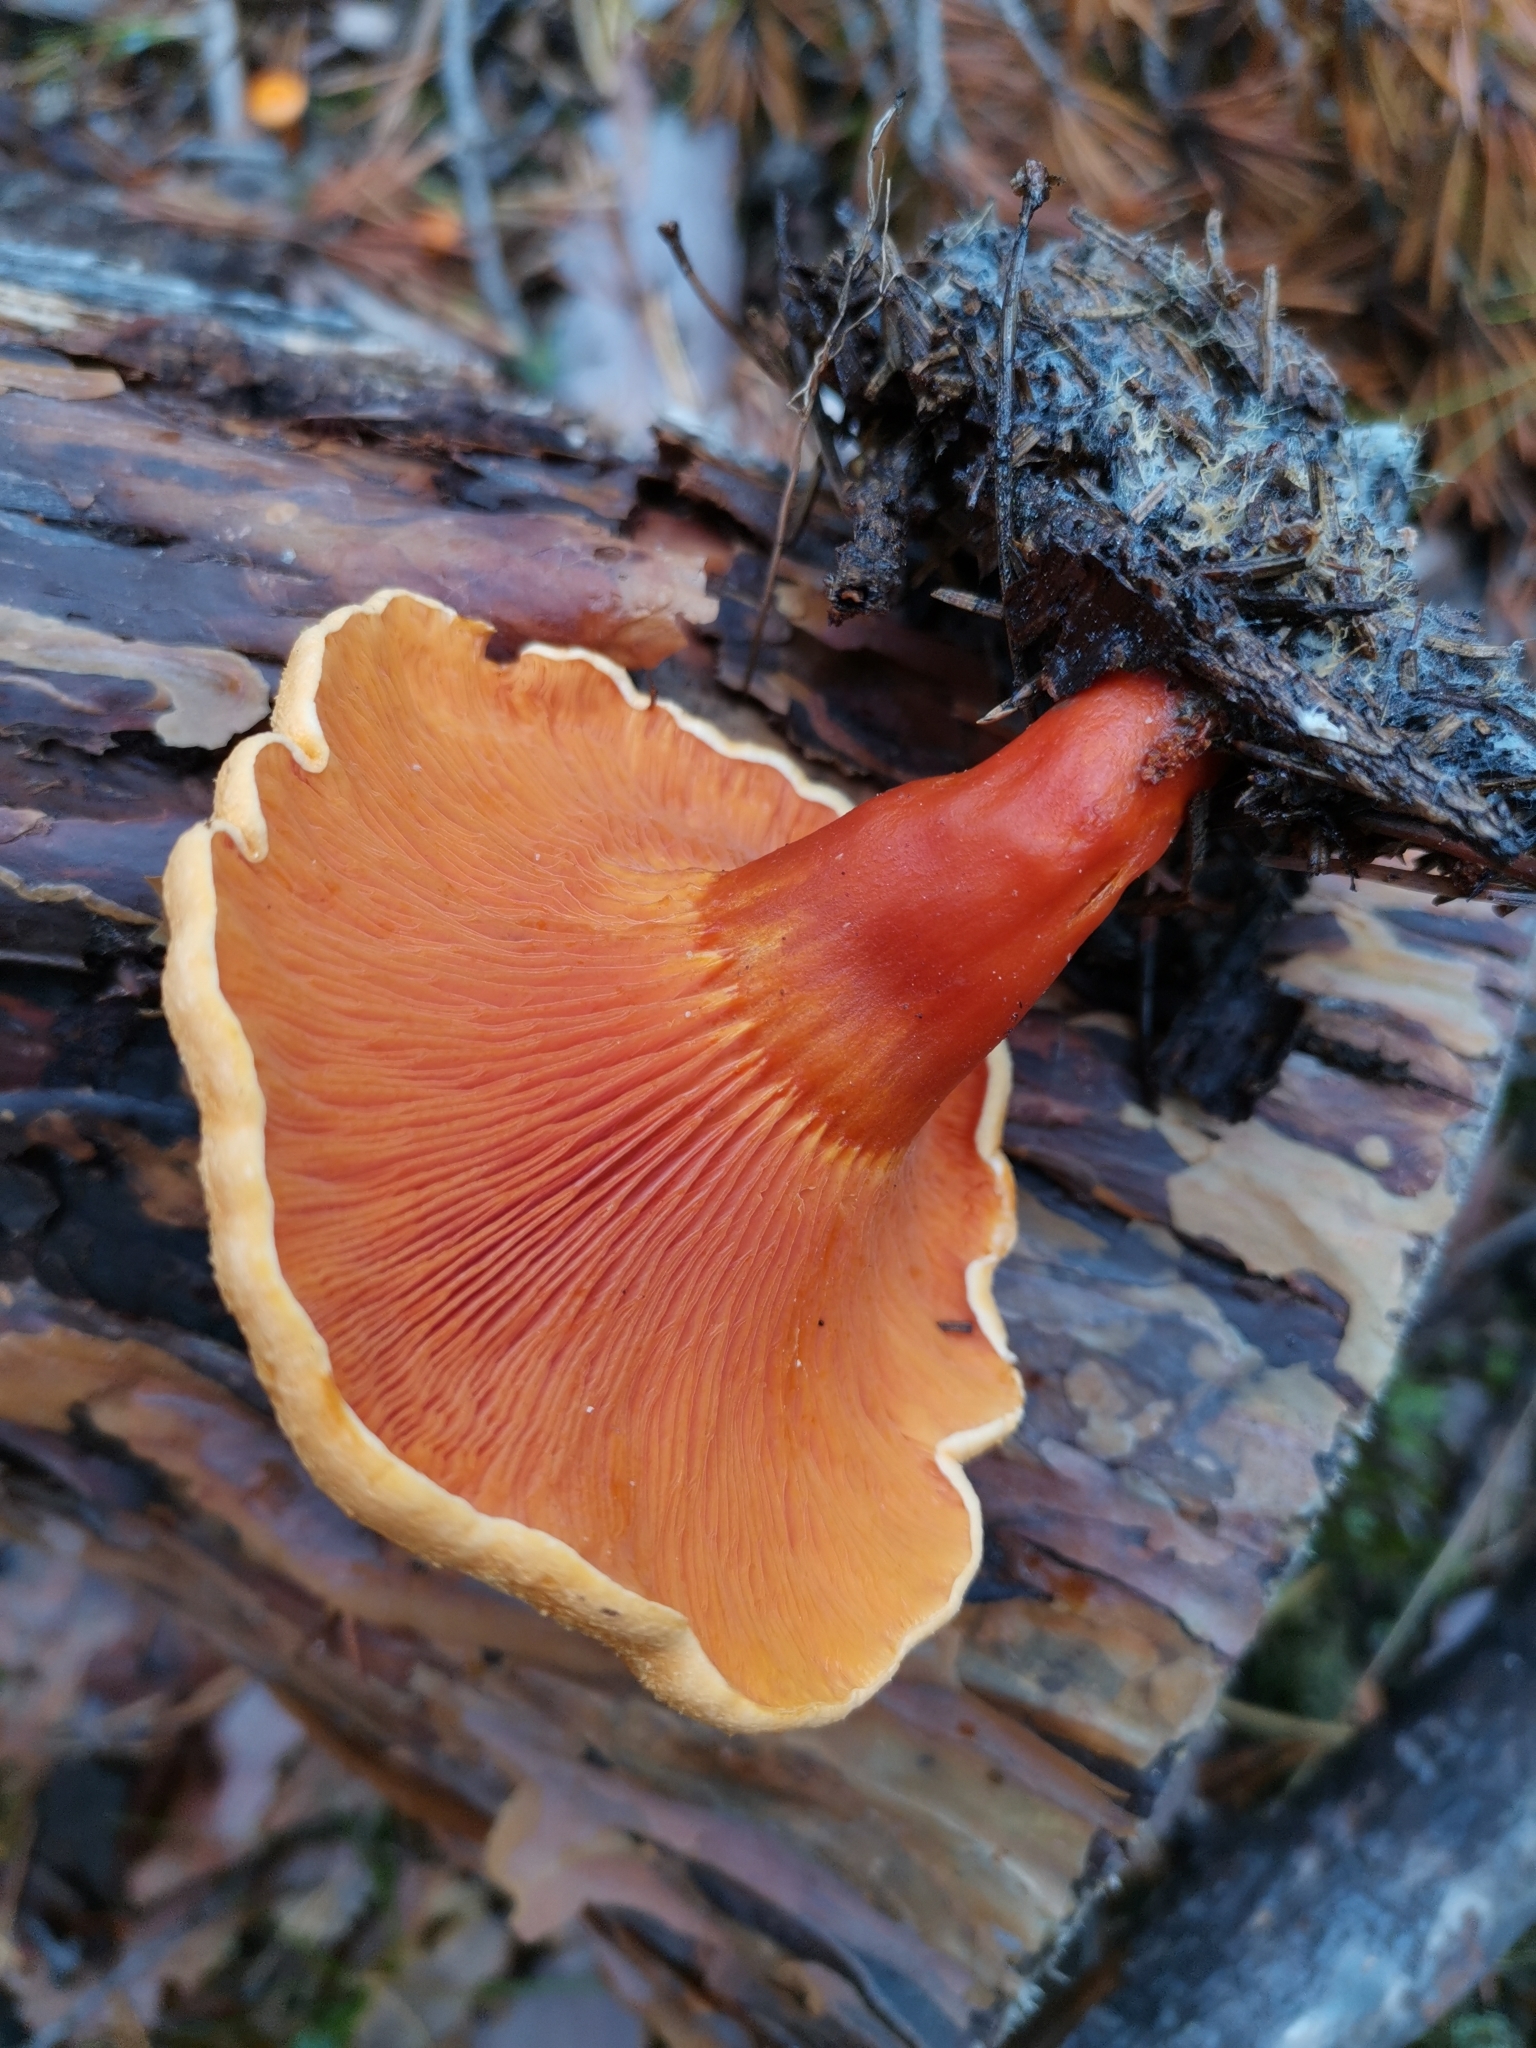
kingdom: Fungi
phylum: Basidiomycota
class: Agaricomycetes
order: Boletales
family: Hygrophoropsidaceae
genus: Hygrophoropsis
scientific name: Hygrophoropsis aurantiaca
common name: False chanterelle
